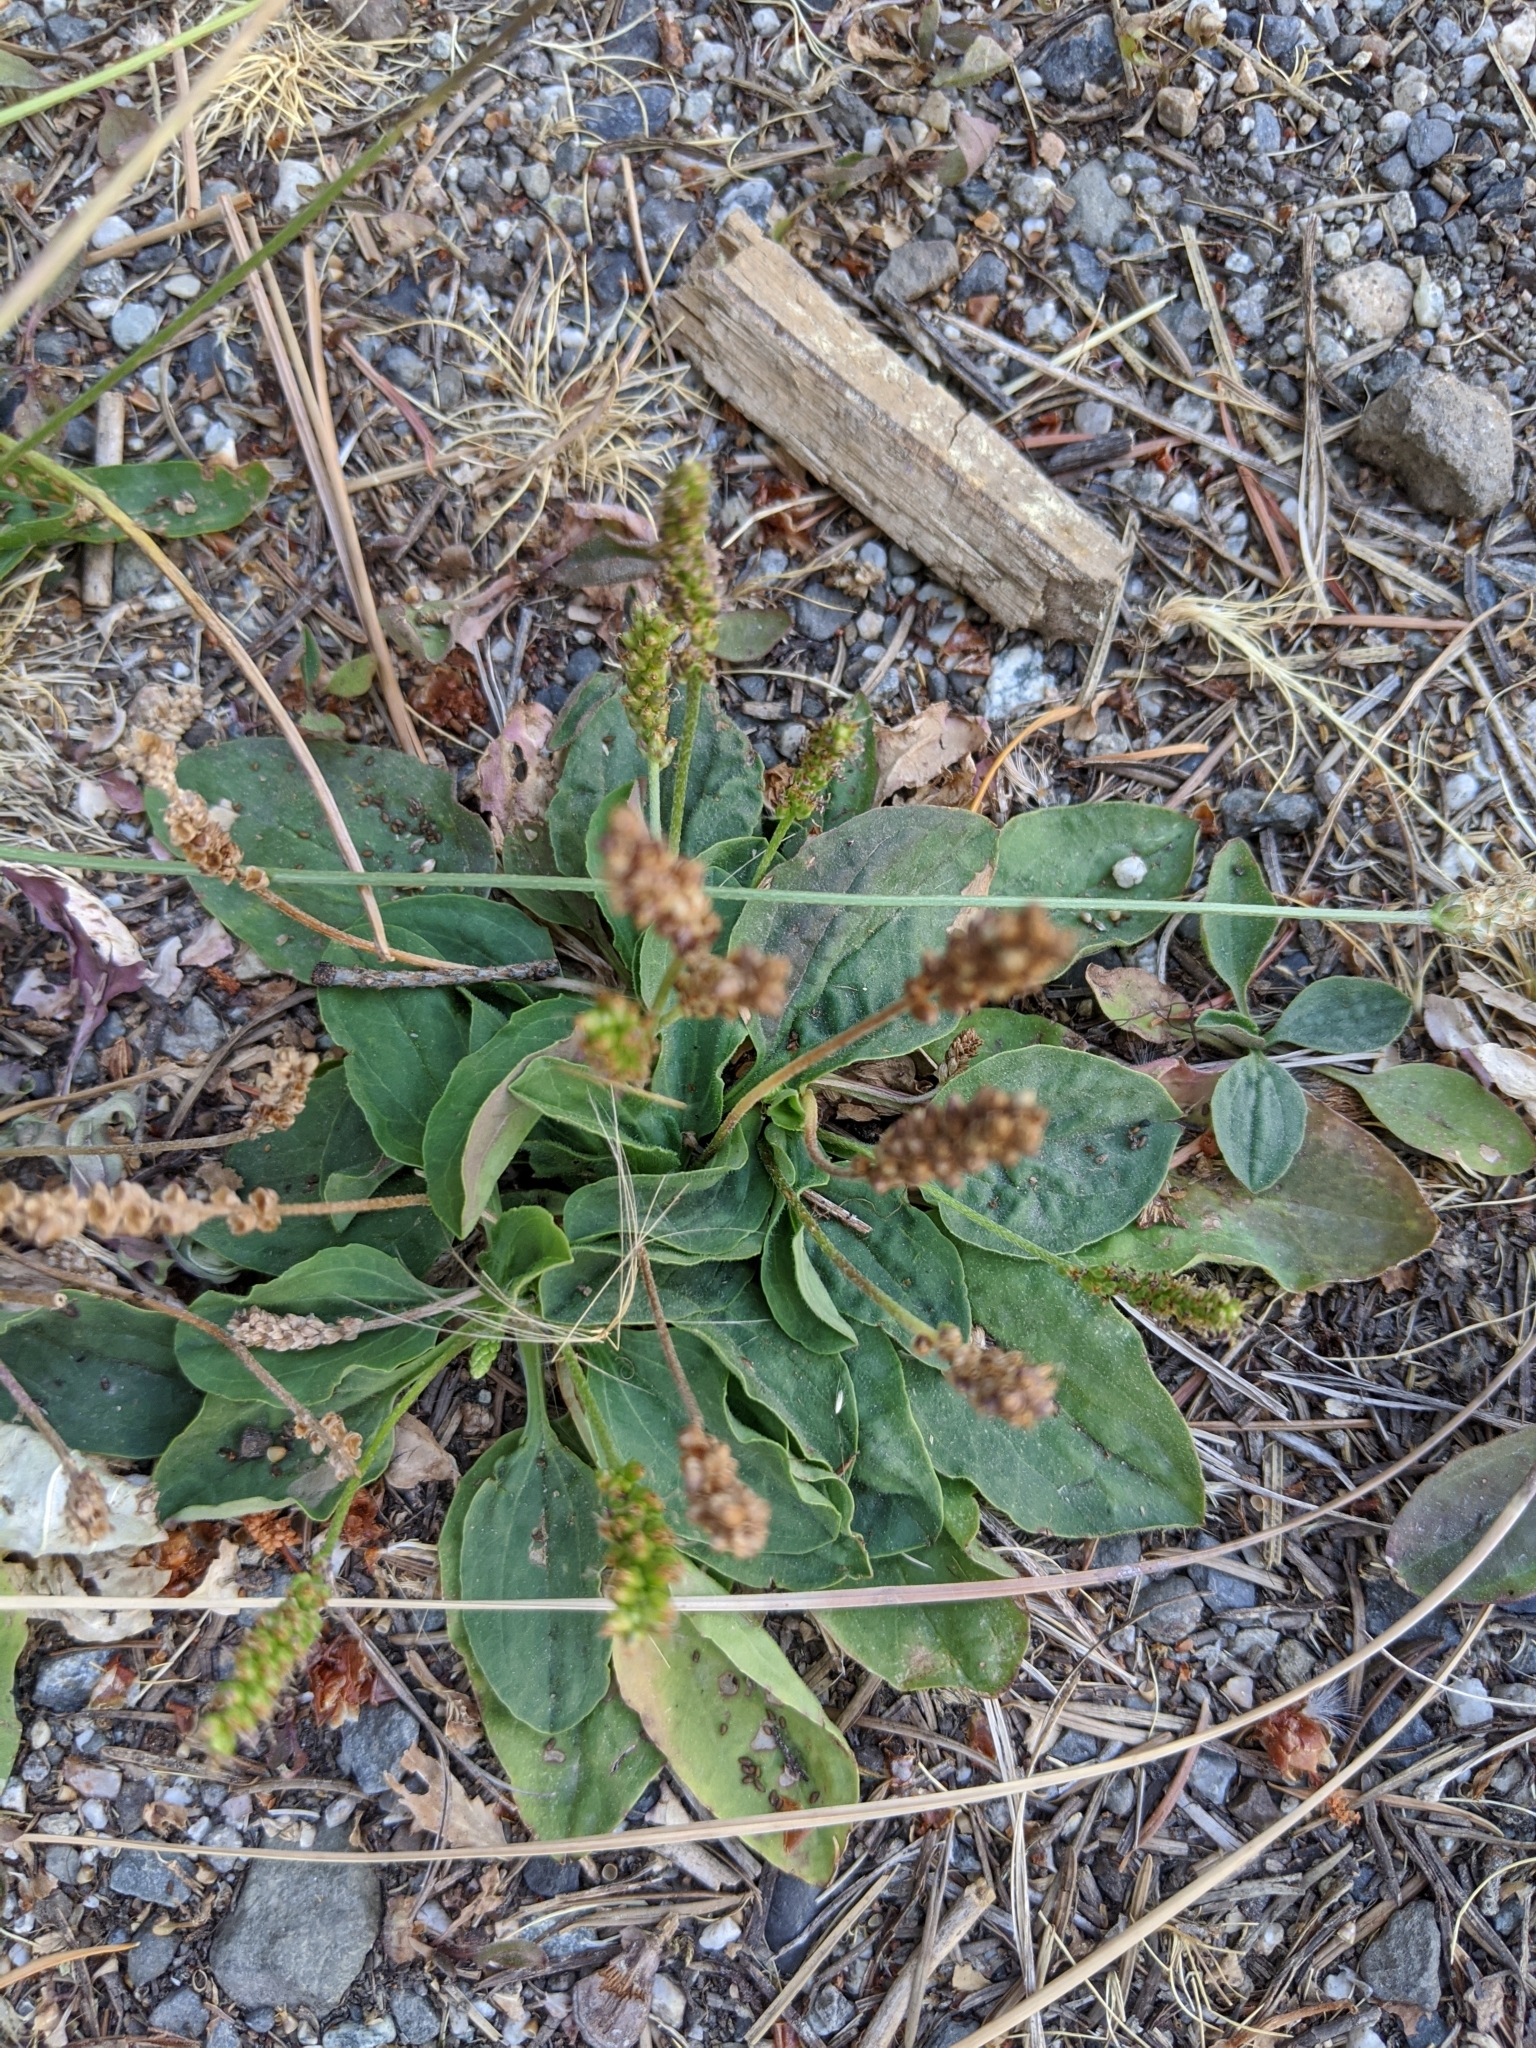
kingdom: Plantae
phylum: Tracheophyta
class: Magnoliopsida
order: Lamiales
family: Plantaginaceae
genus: Plantago
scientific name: Plantago major
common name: Common plantain
